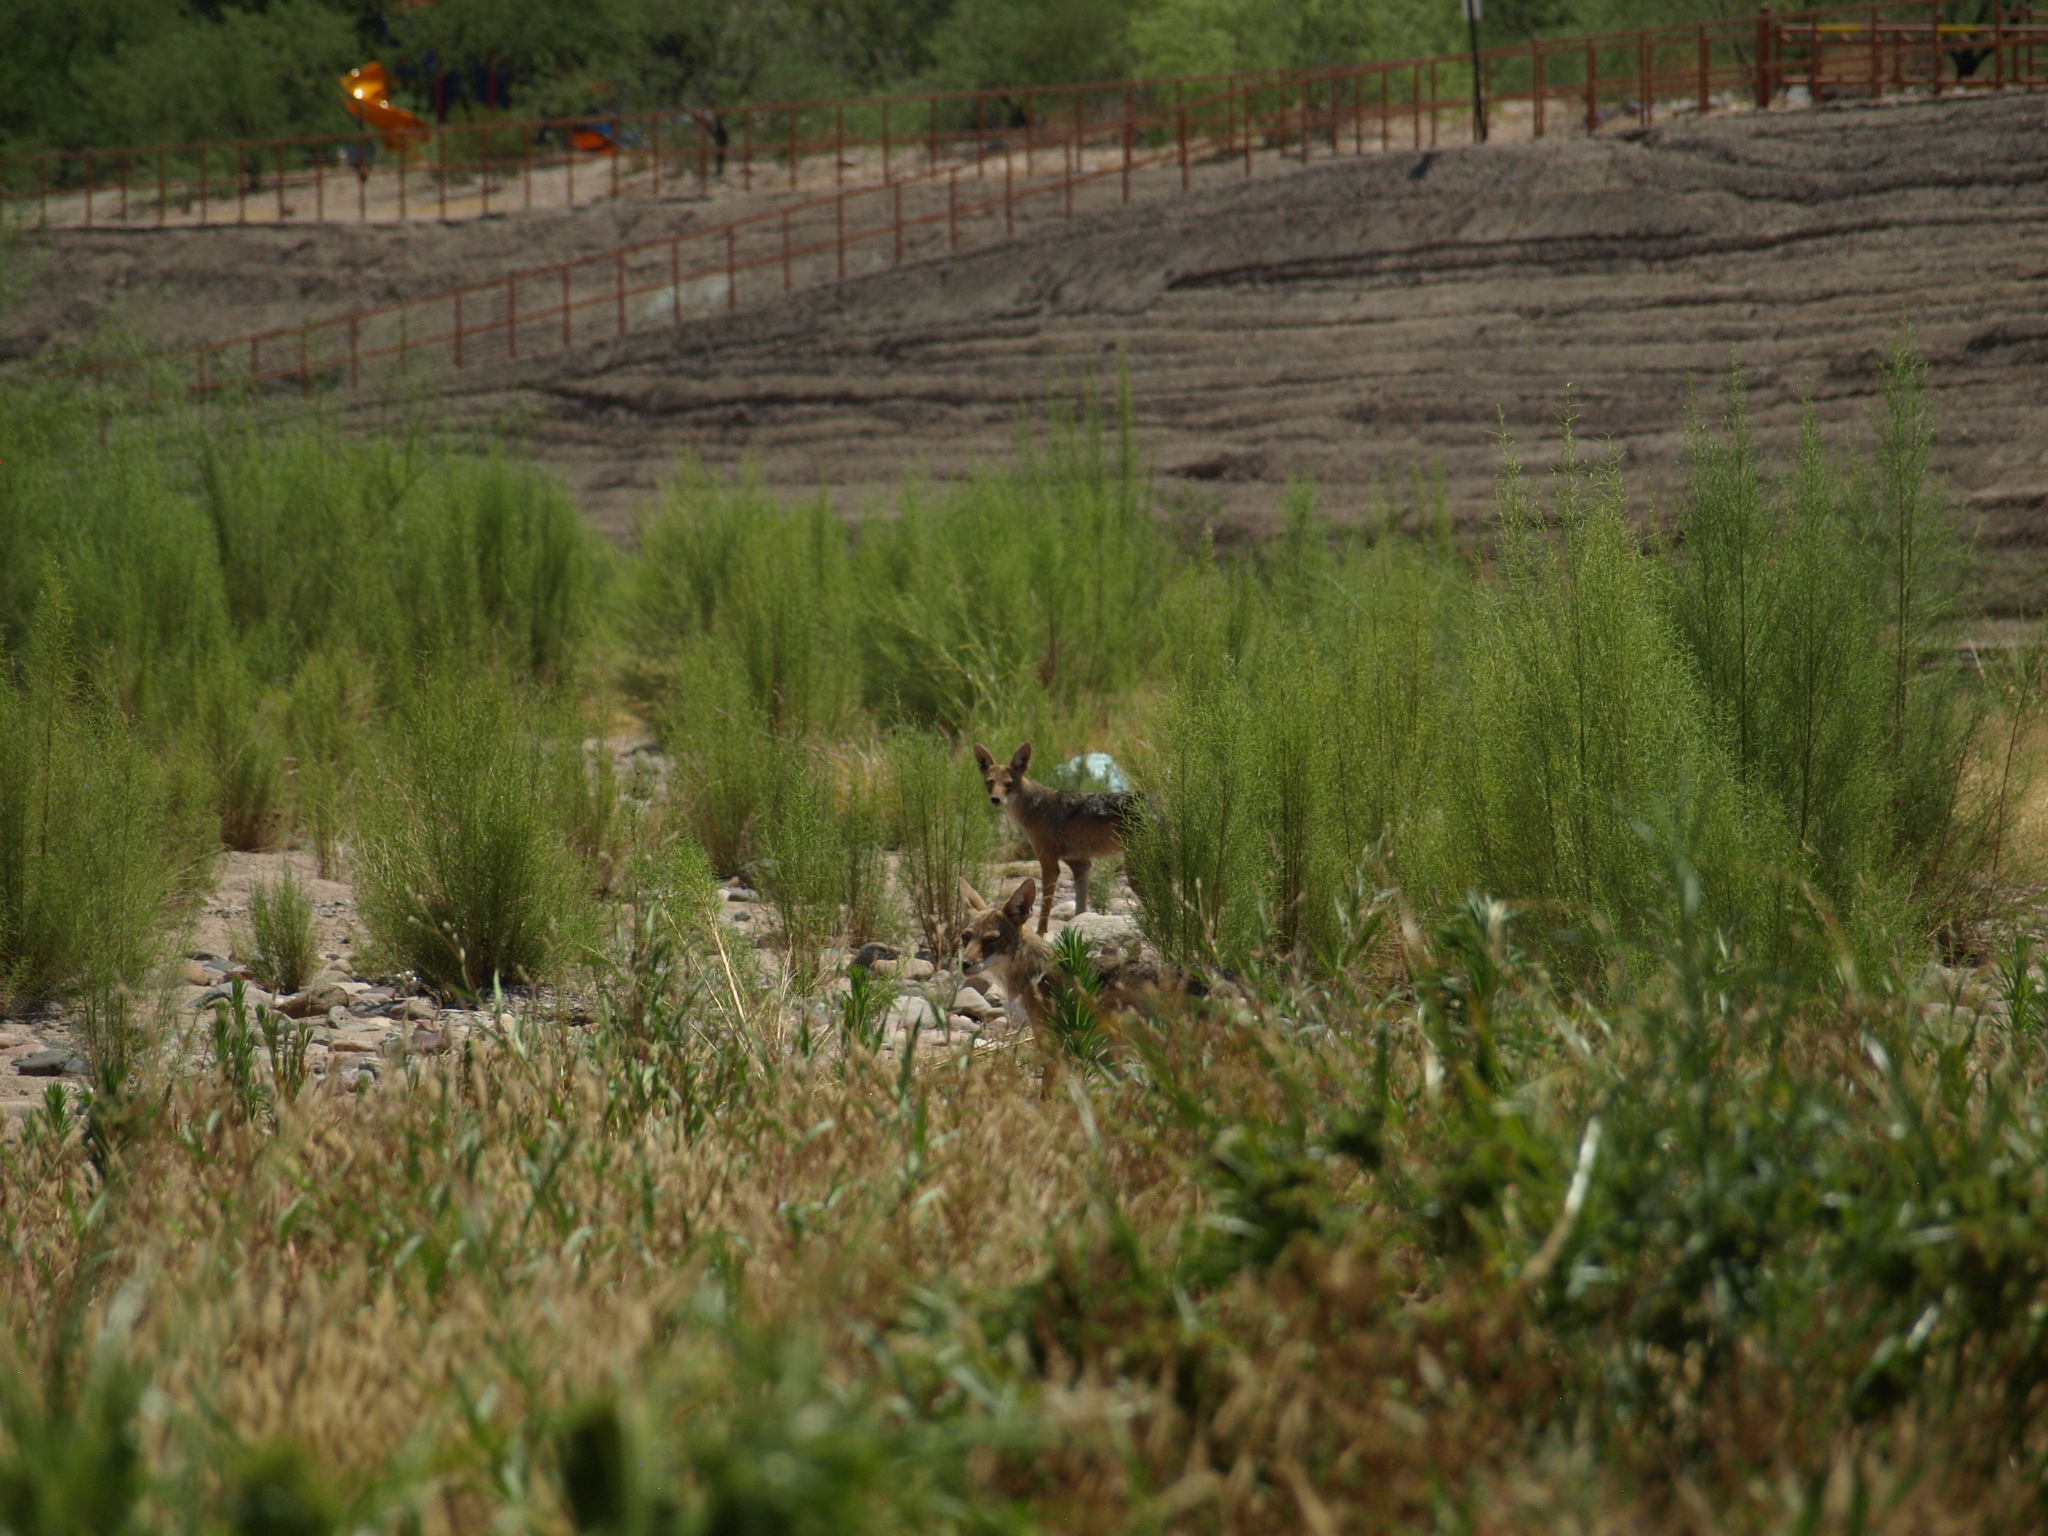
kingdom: Animalia
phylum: Chordata
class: Mammalia
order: Carnivora
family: Canidae
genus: Canis
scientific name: Canis latrans
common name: Coyote
